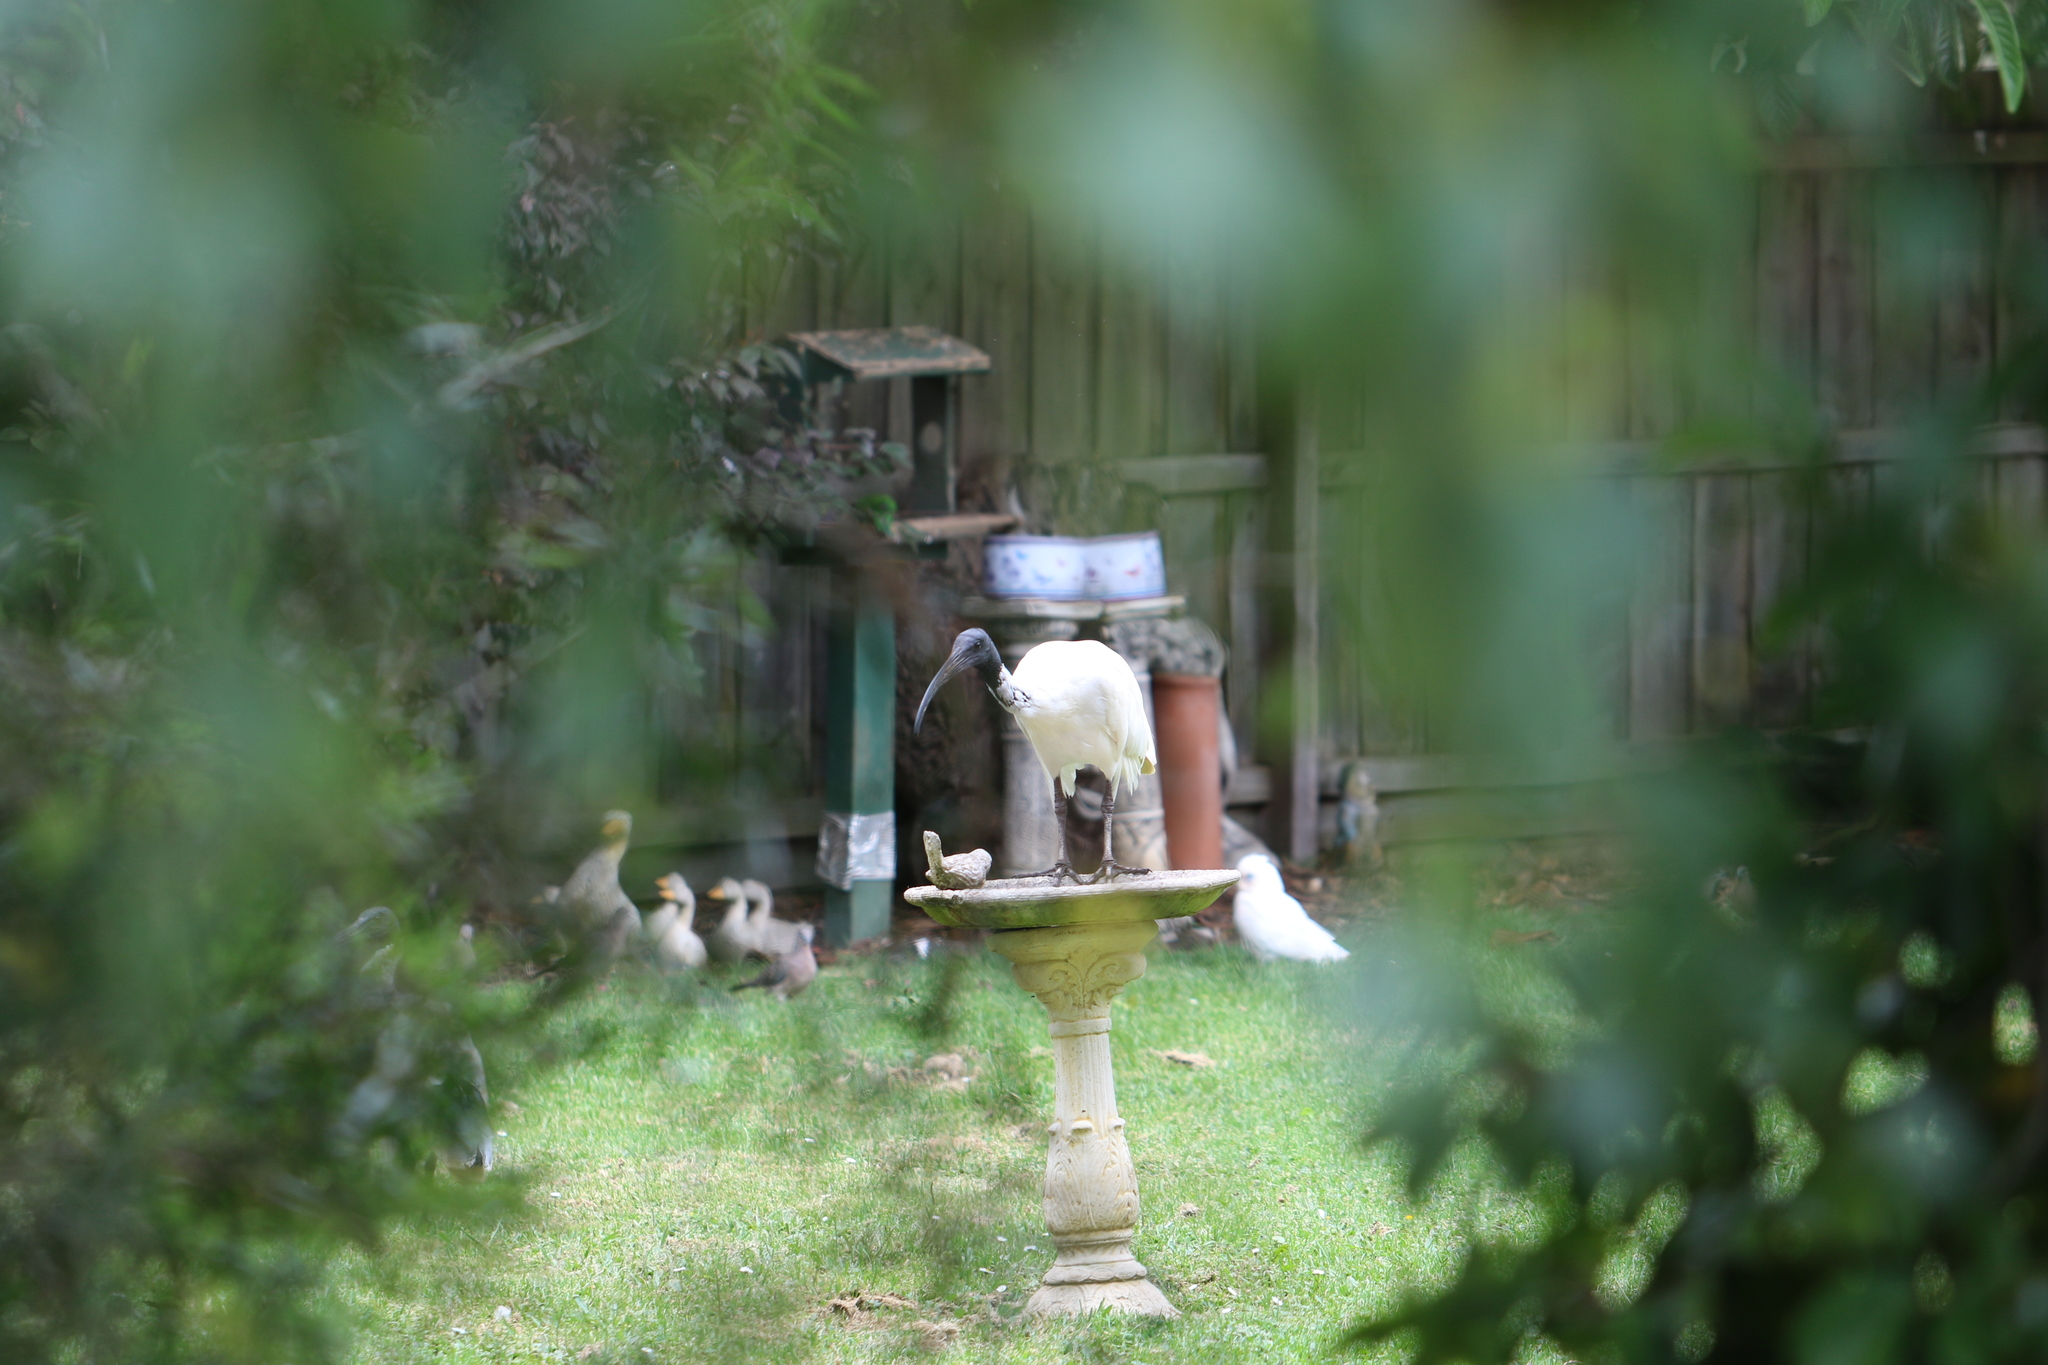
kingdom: Animalia
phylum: Chordata
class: Aves
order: Pelecaniformes
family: Threskiornithidae
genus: Threskiornis
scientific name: Threskiornis molucca
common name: Australian white ibis
